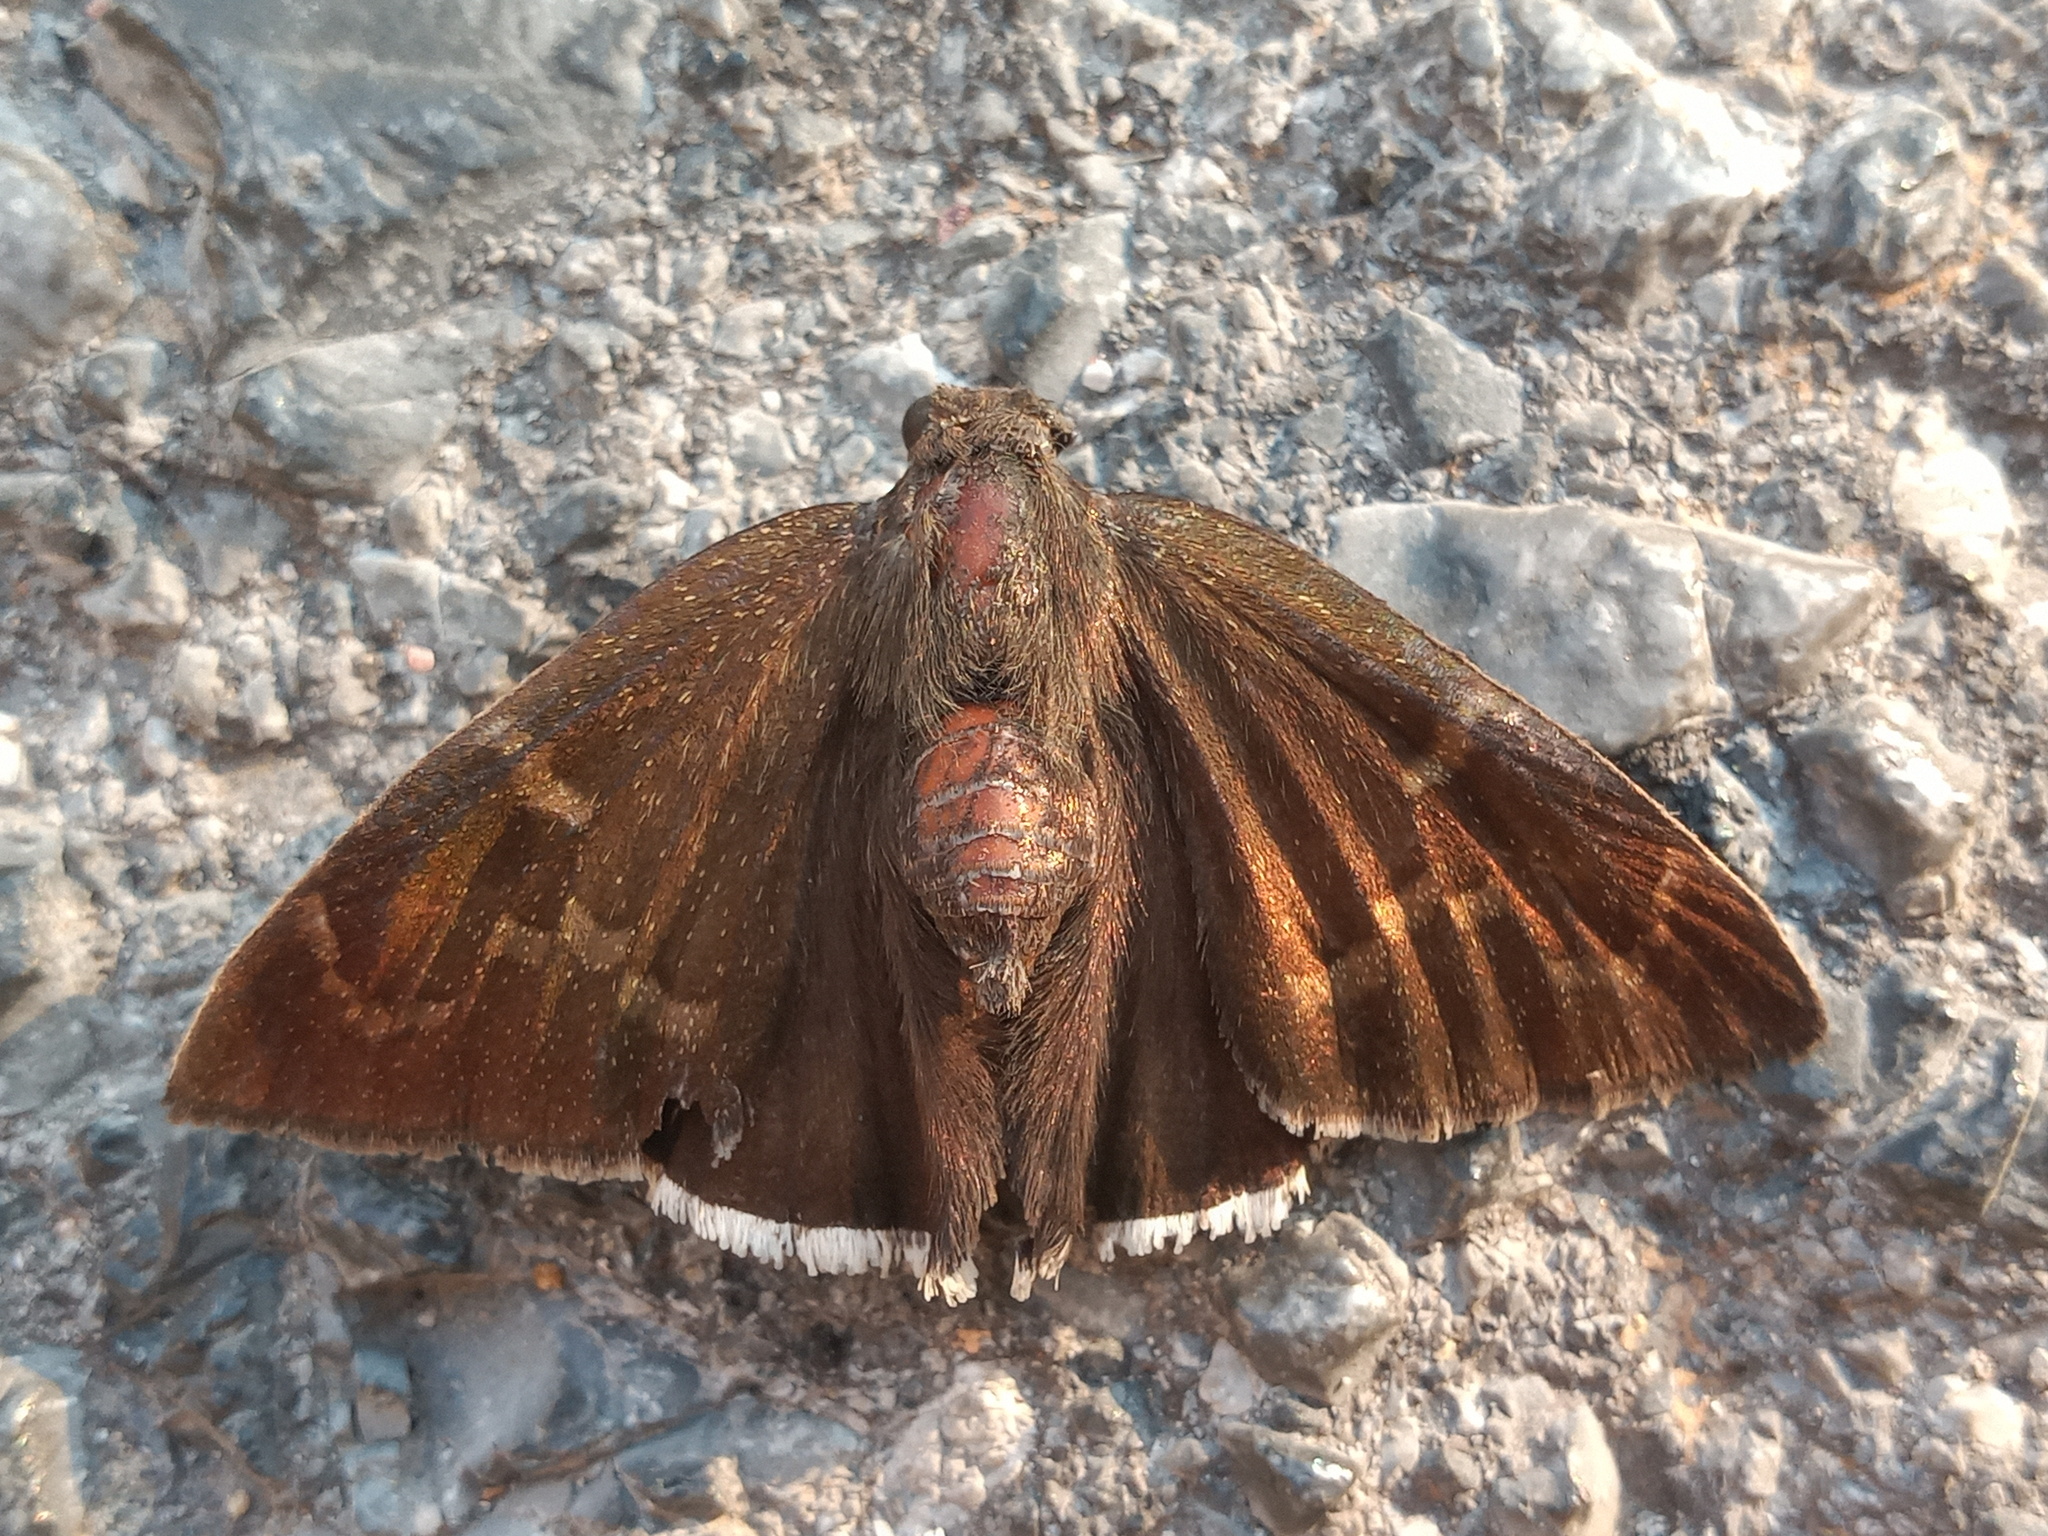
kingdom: Animalia
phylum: Arthropoda
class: Insecta
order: Lepidoptera
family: Hesperiidae
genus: Achalarus
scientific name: Achalarus Murgaria albociliatus
